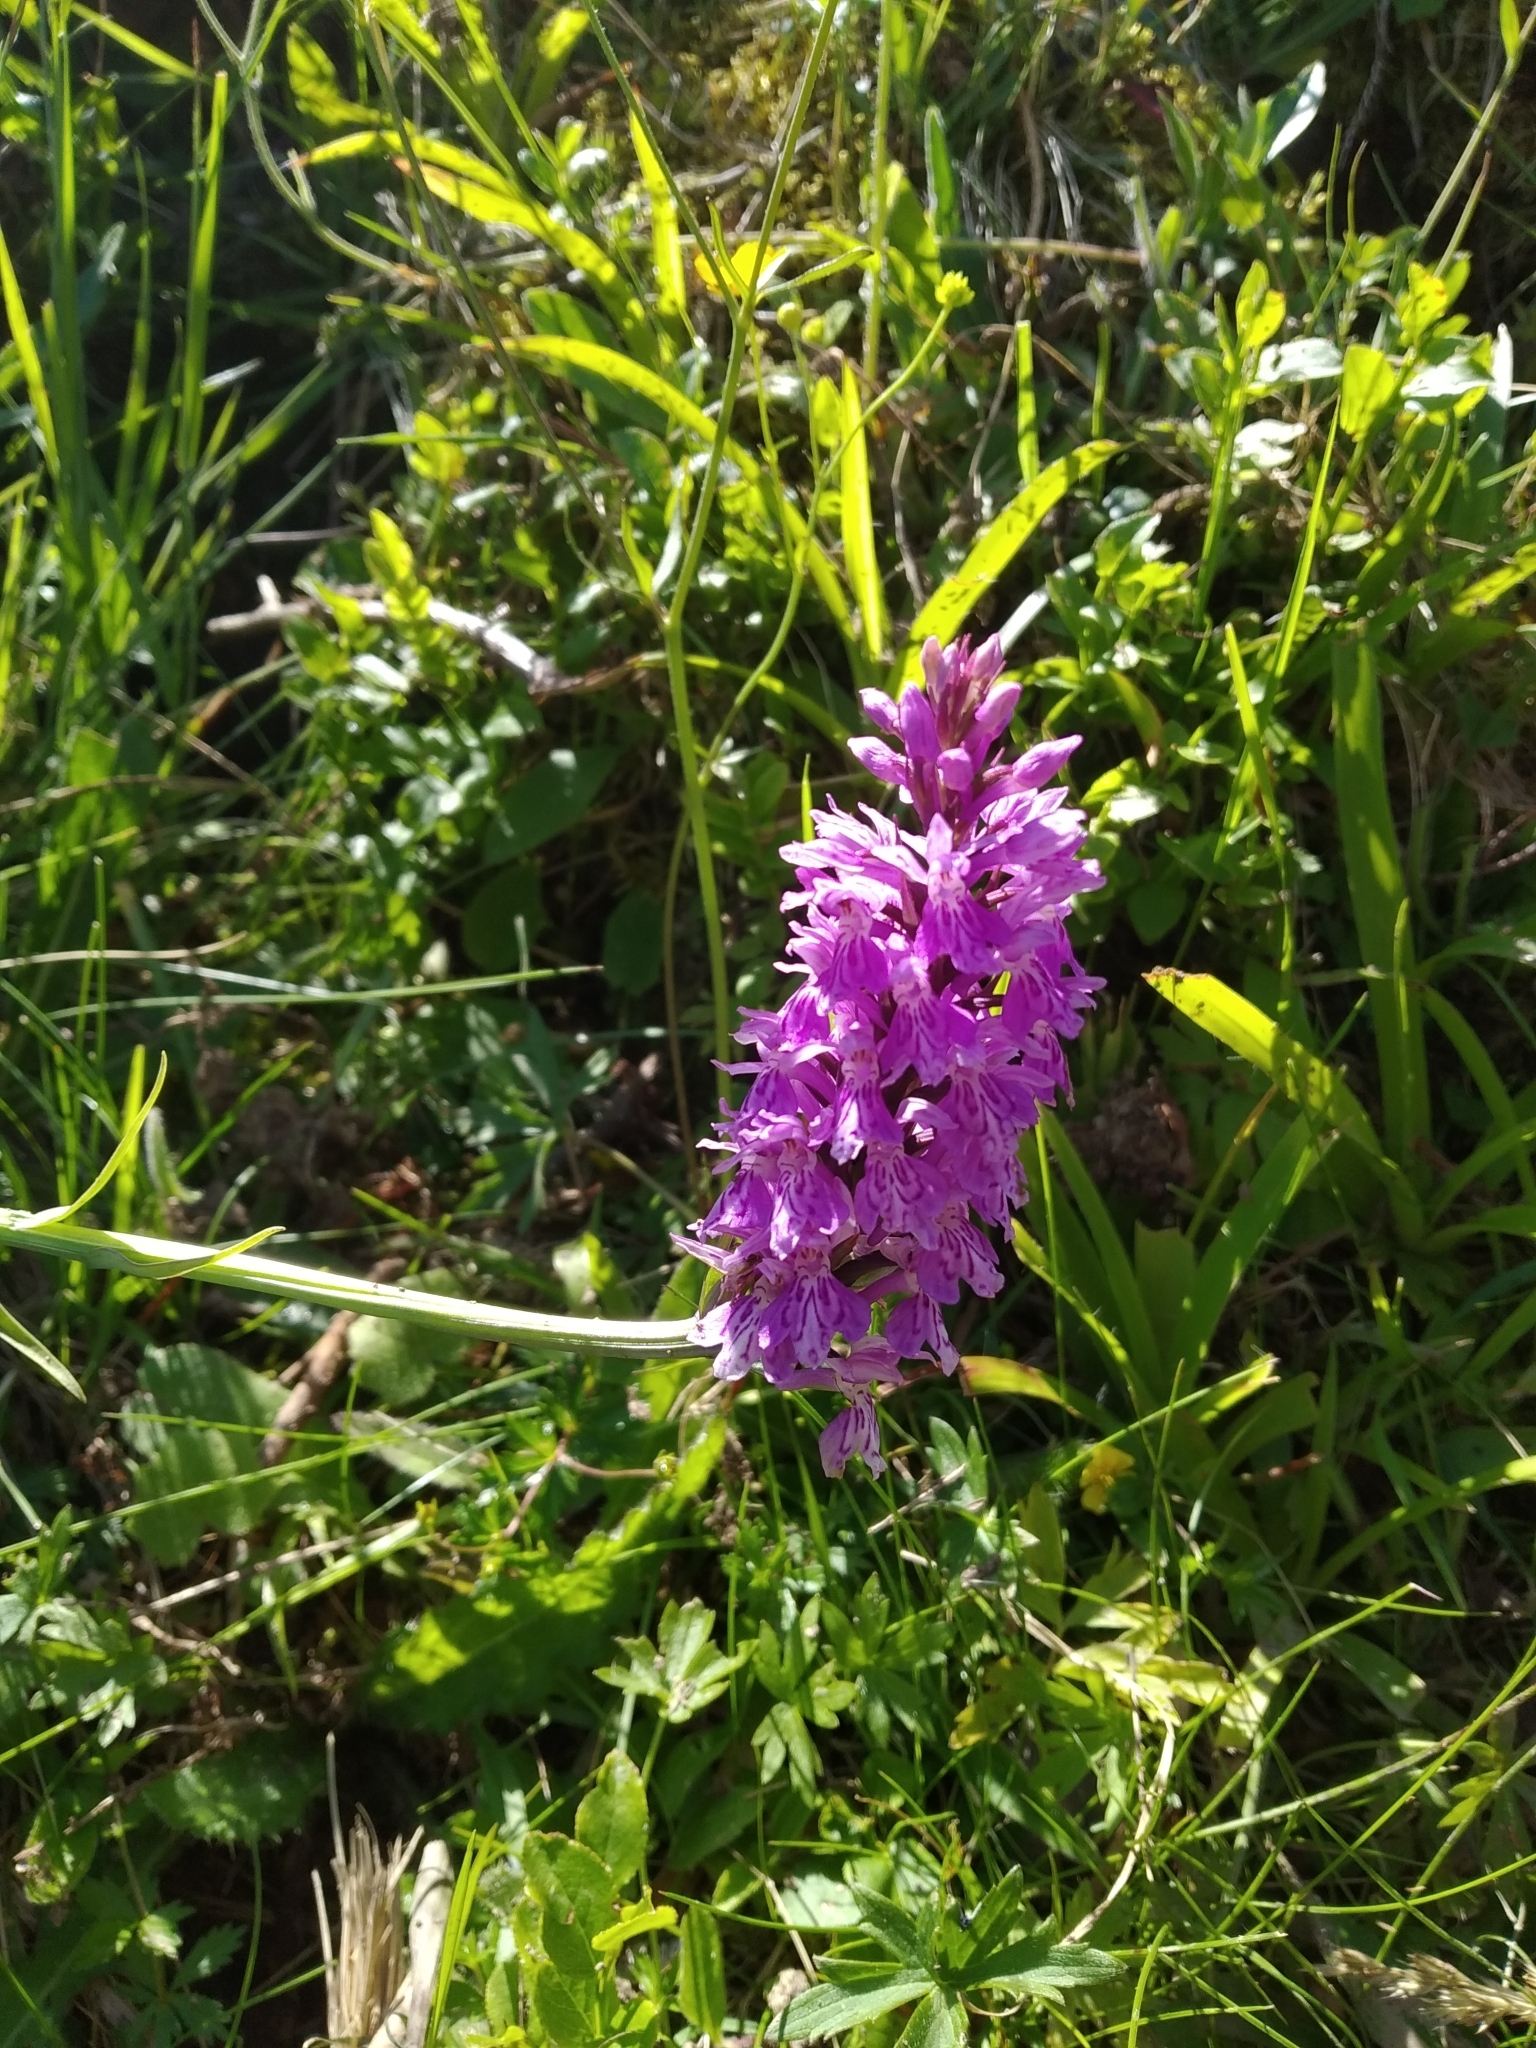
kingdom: Plantae
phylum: Tracheophyta
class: Liliopsida
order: Asparagales
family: Orchidaceae
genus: Dactylorhiza
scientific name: Dactylorhiza maculata
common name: Heath spotted-orchid
